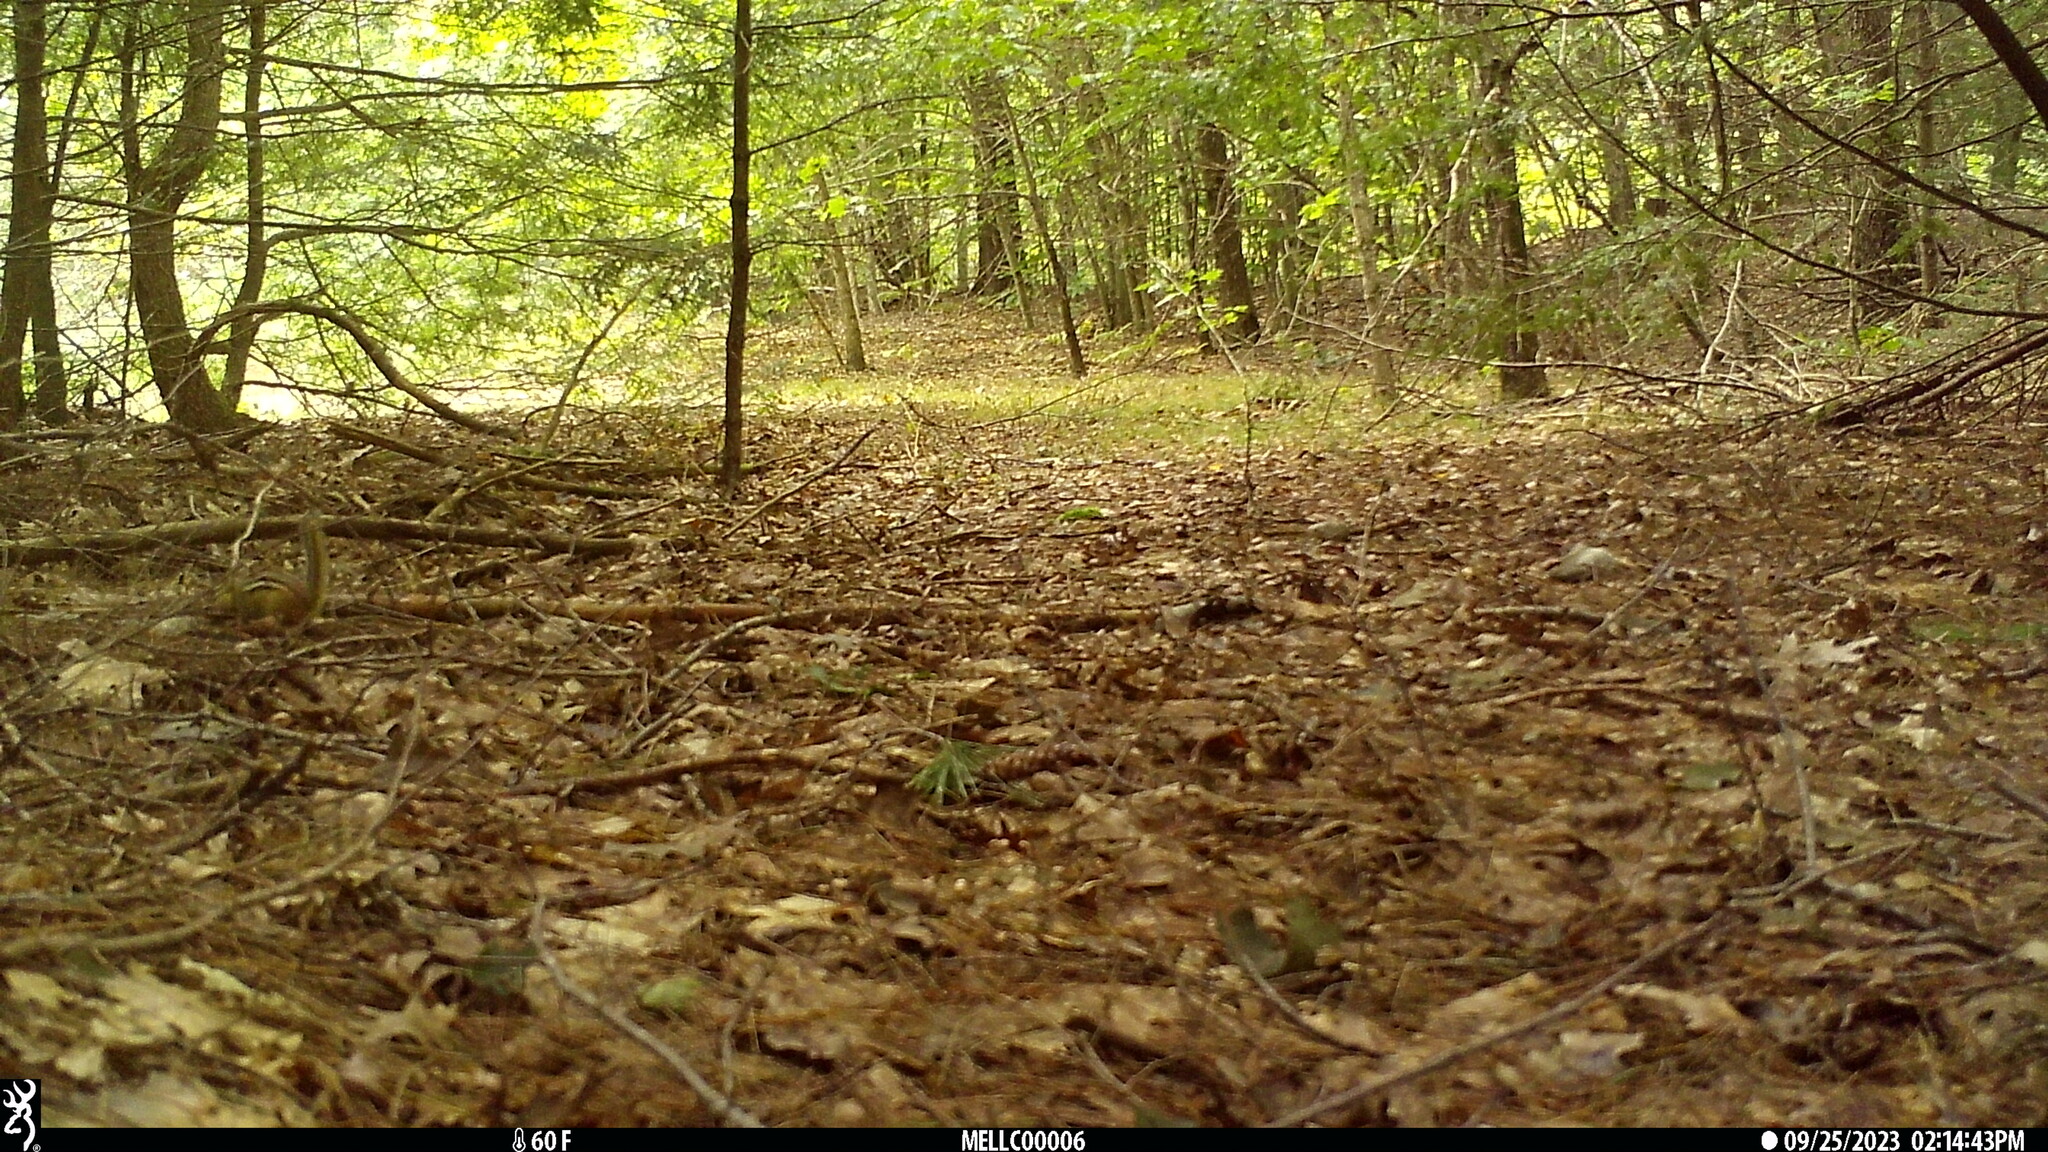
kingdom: Animalia
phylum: Chordata
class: Mammalia
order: Rodentia
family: Sciuridae
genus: Tamias
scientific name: Tamias striatus
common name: Eastern chipmunk
